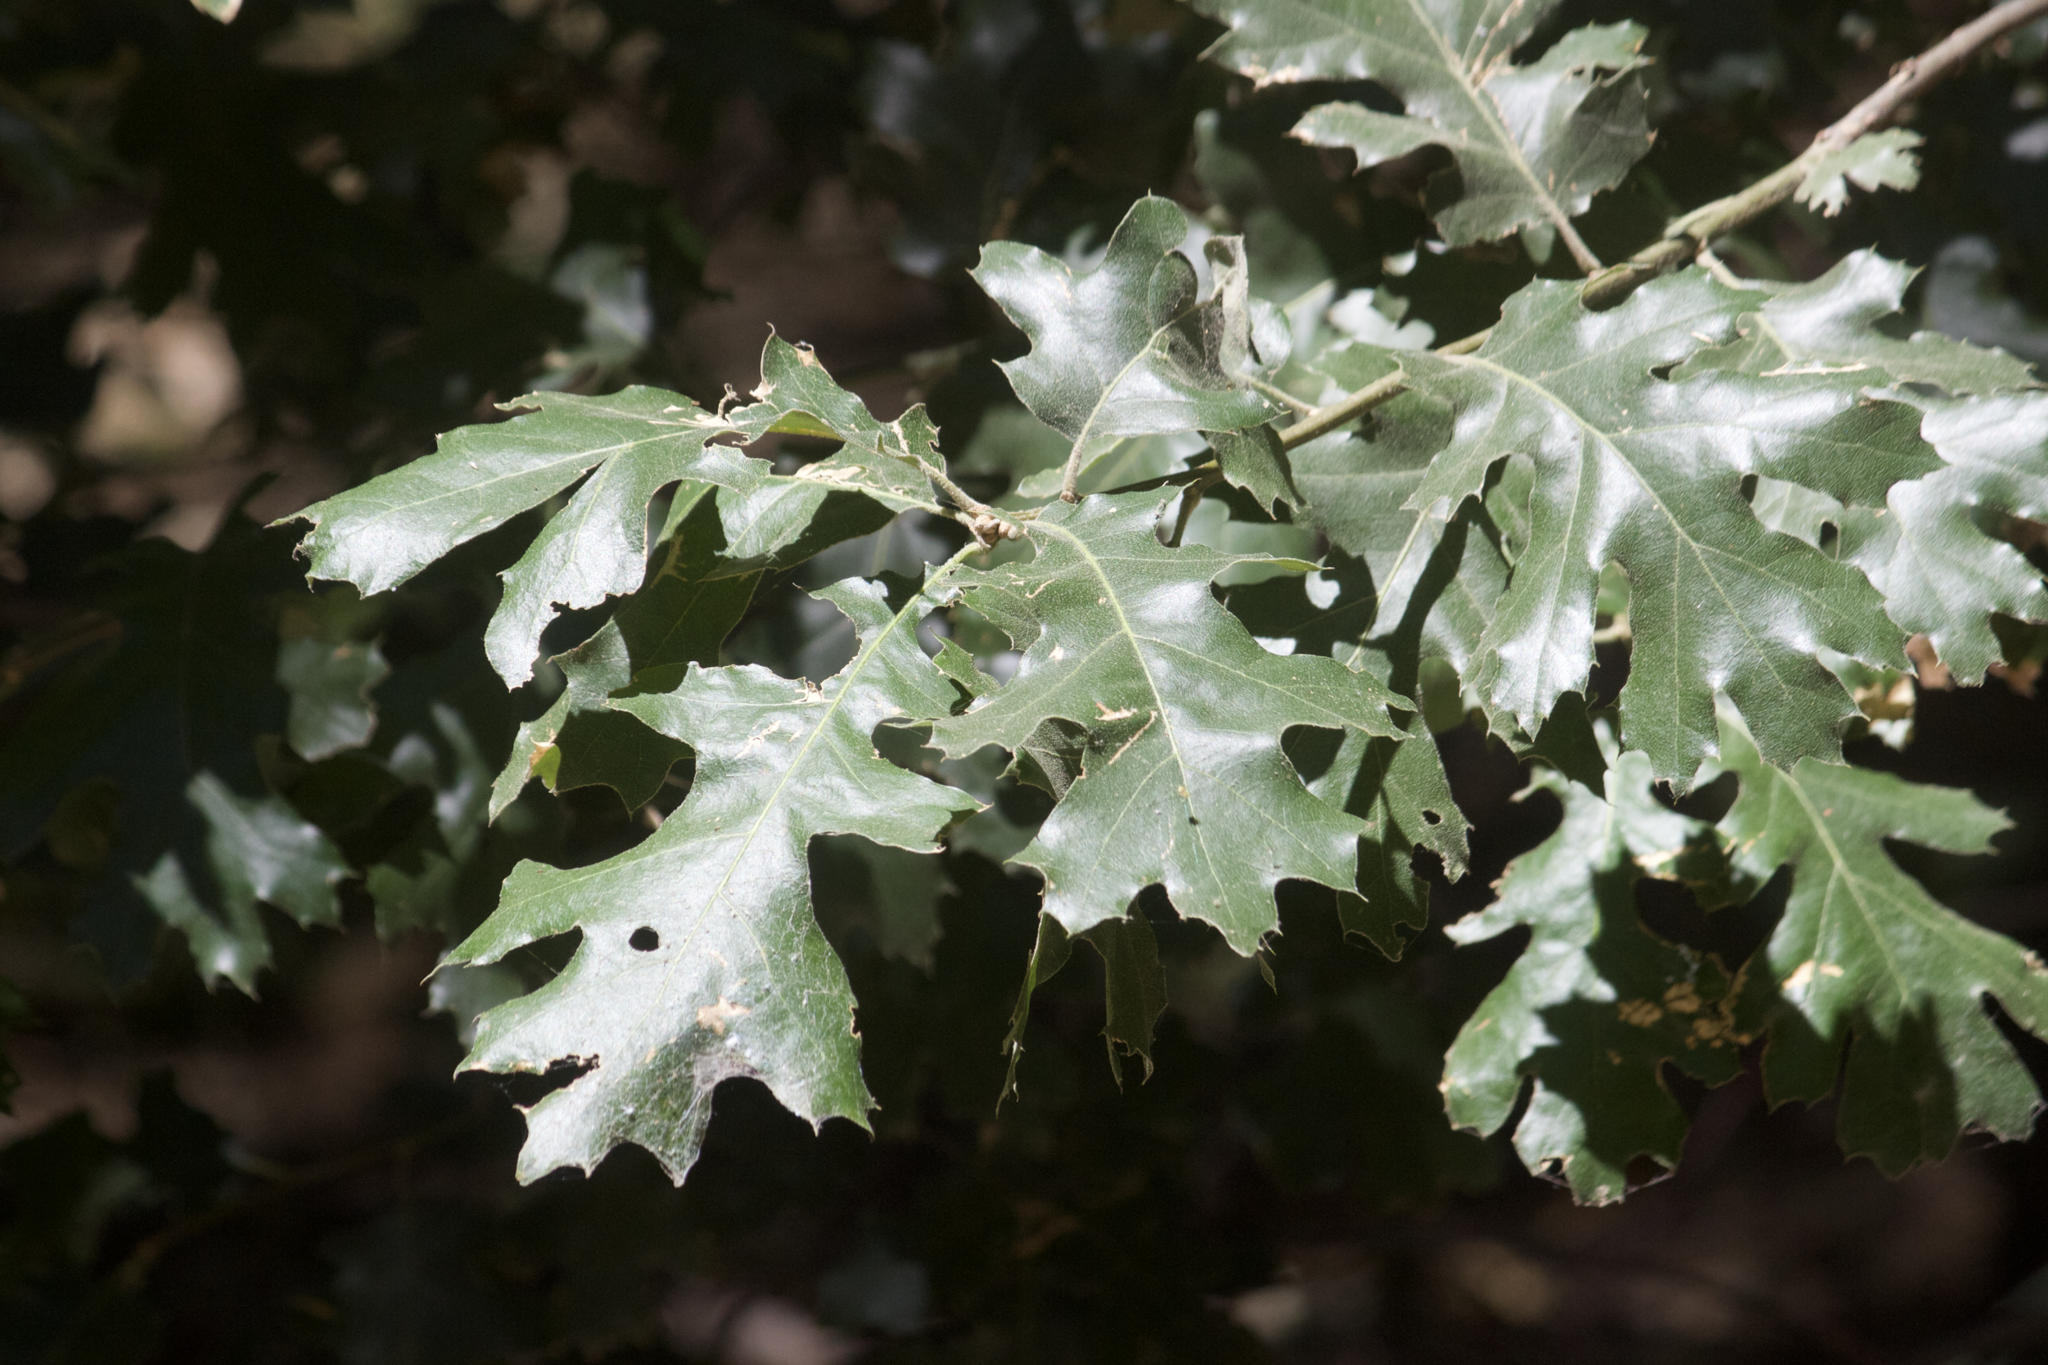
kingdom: Plantae
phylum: Tracheophyta
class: Magnoliopsida
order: Fagales
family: Fagaceae
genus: Quercus
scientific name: Quercus kelloggii
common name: California black oak
